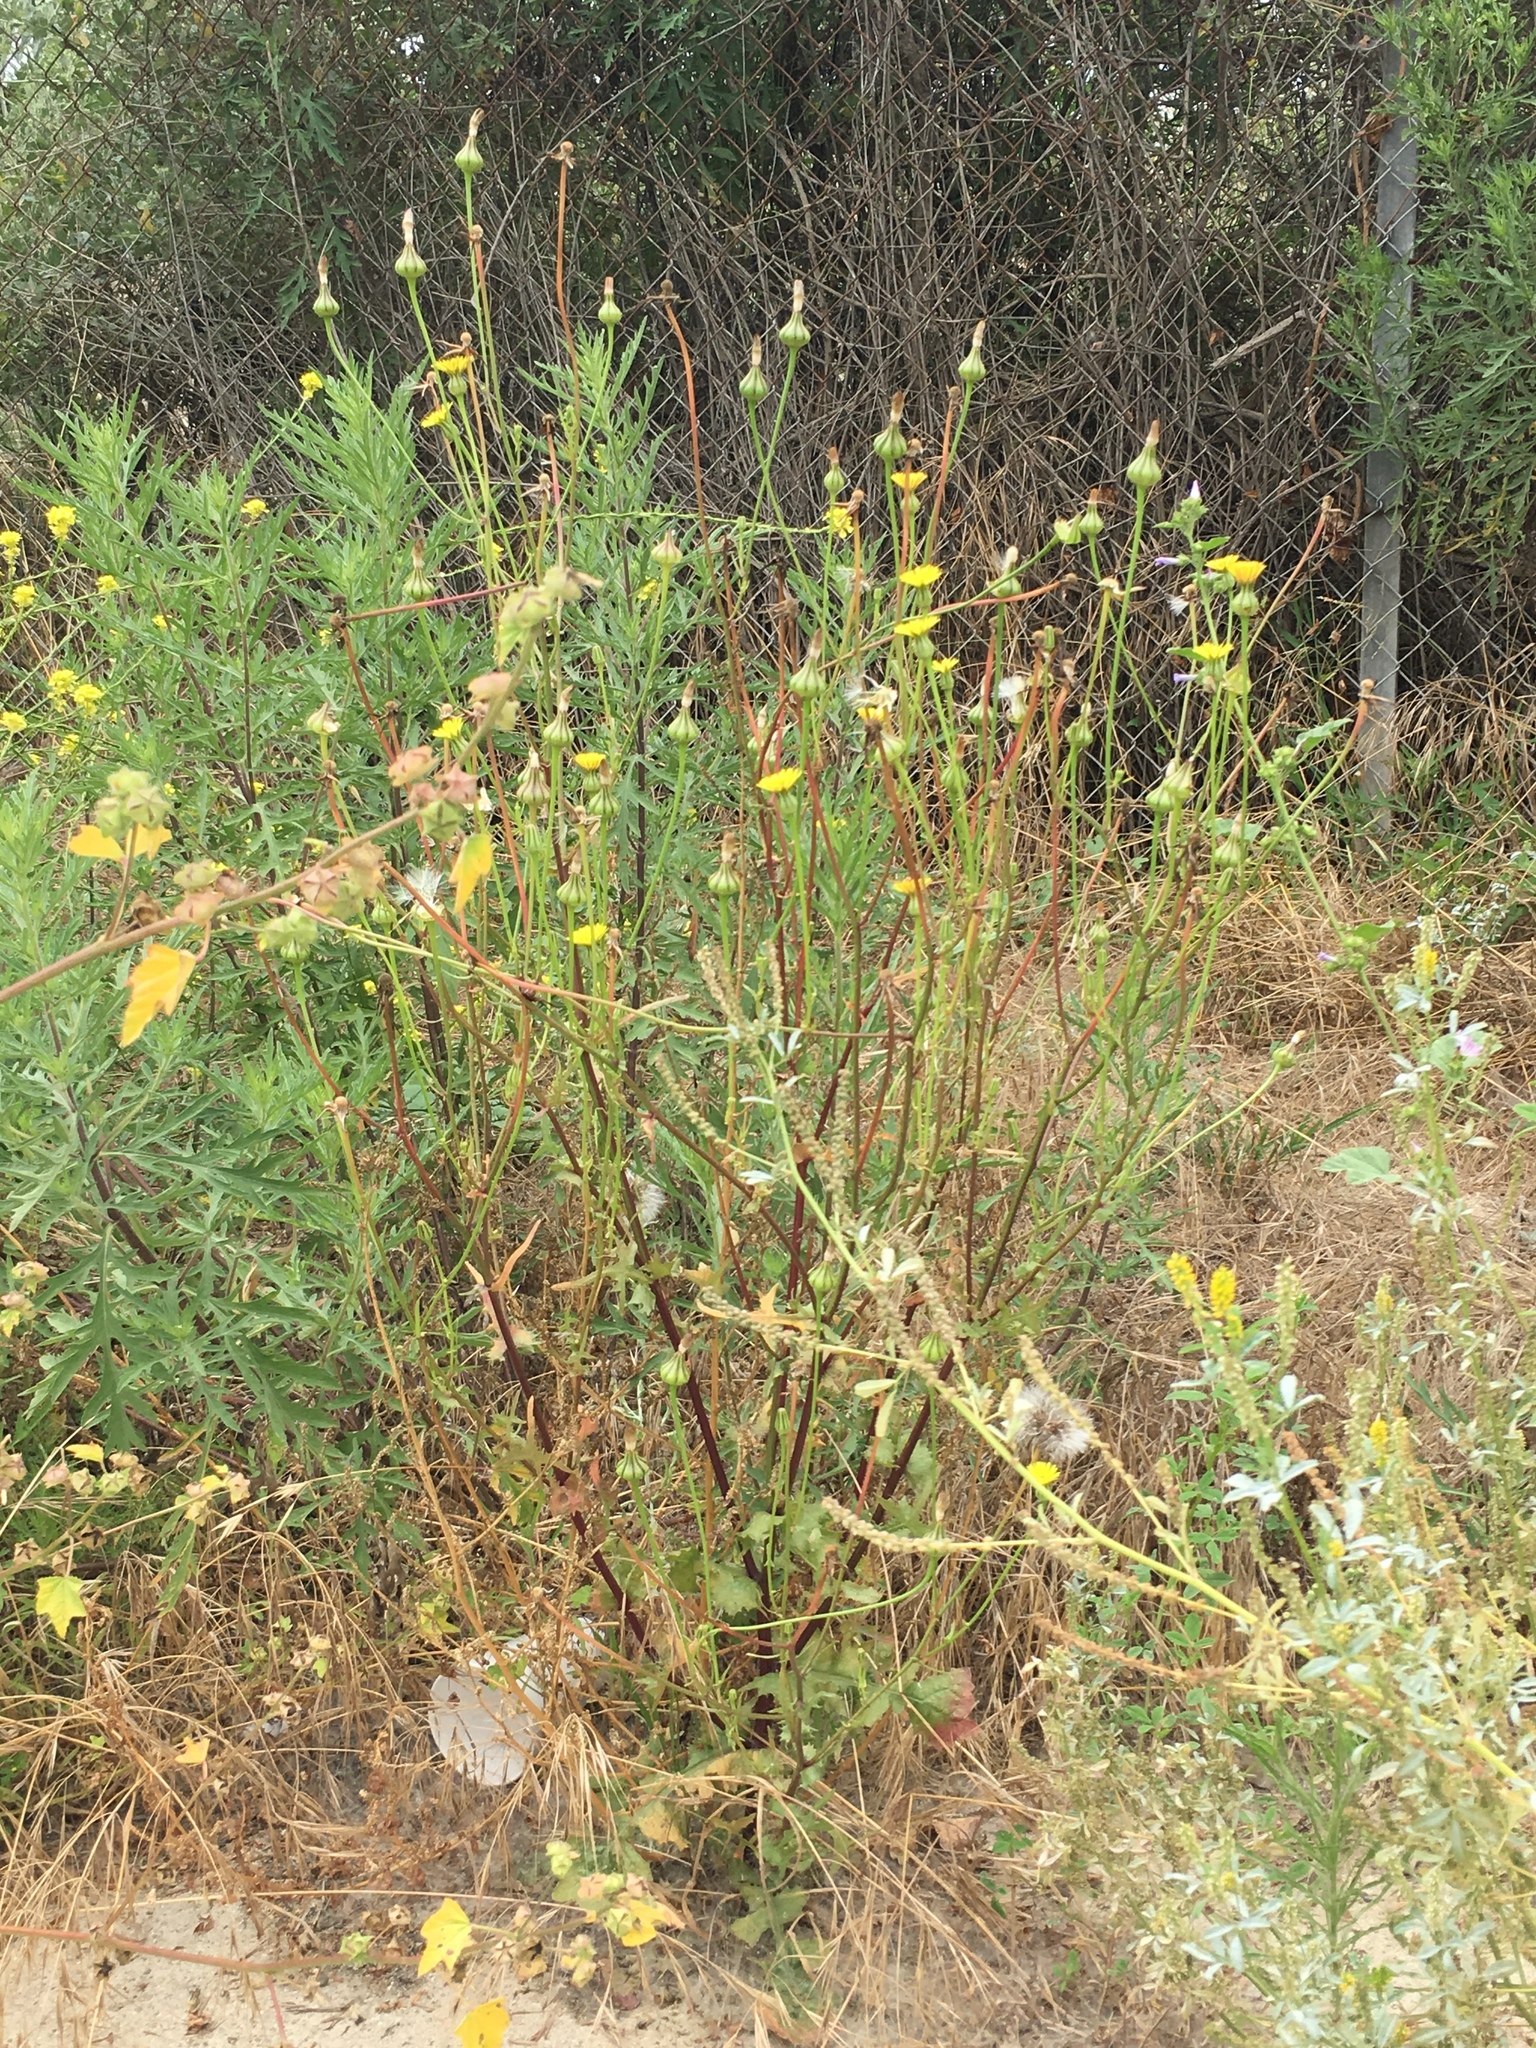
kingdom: Plantae
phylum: Tracheophyta
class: Magnoliopsida
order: Asterales
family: Asteraceae
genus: Urospermum
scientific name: Urospermum picroides
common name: False hawkbit
